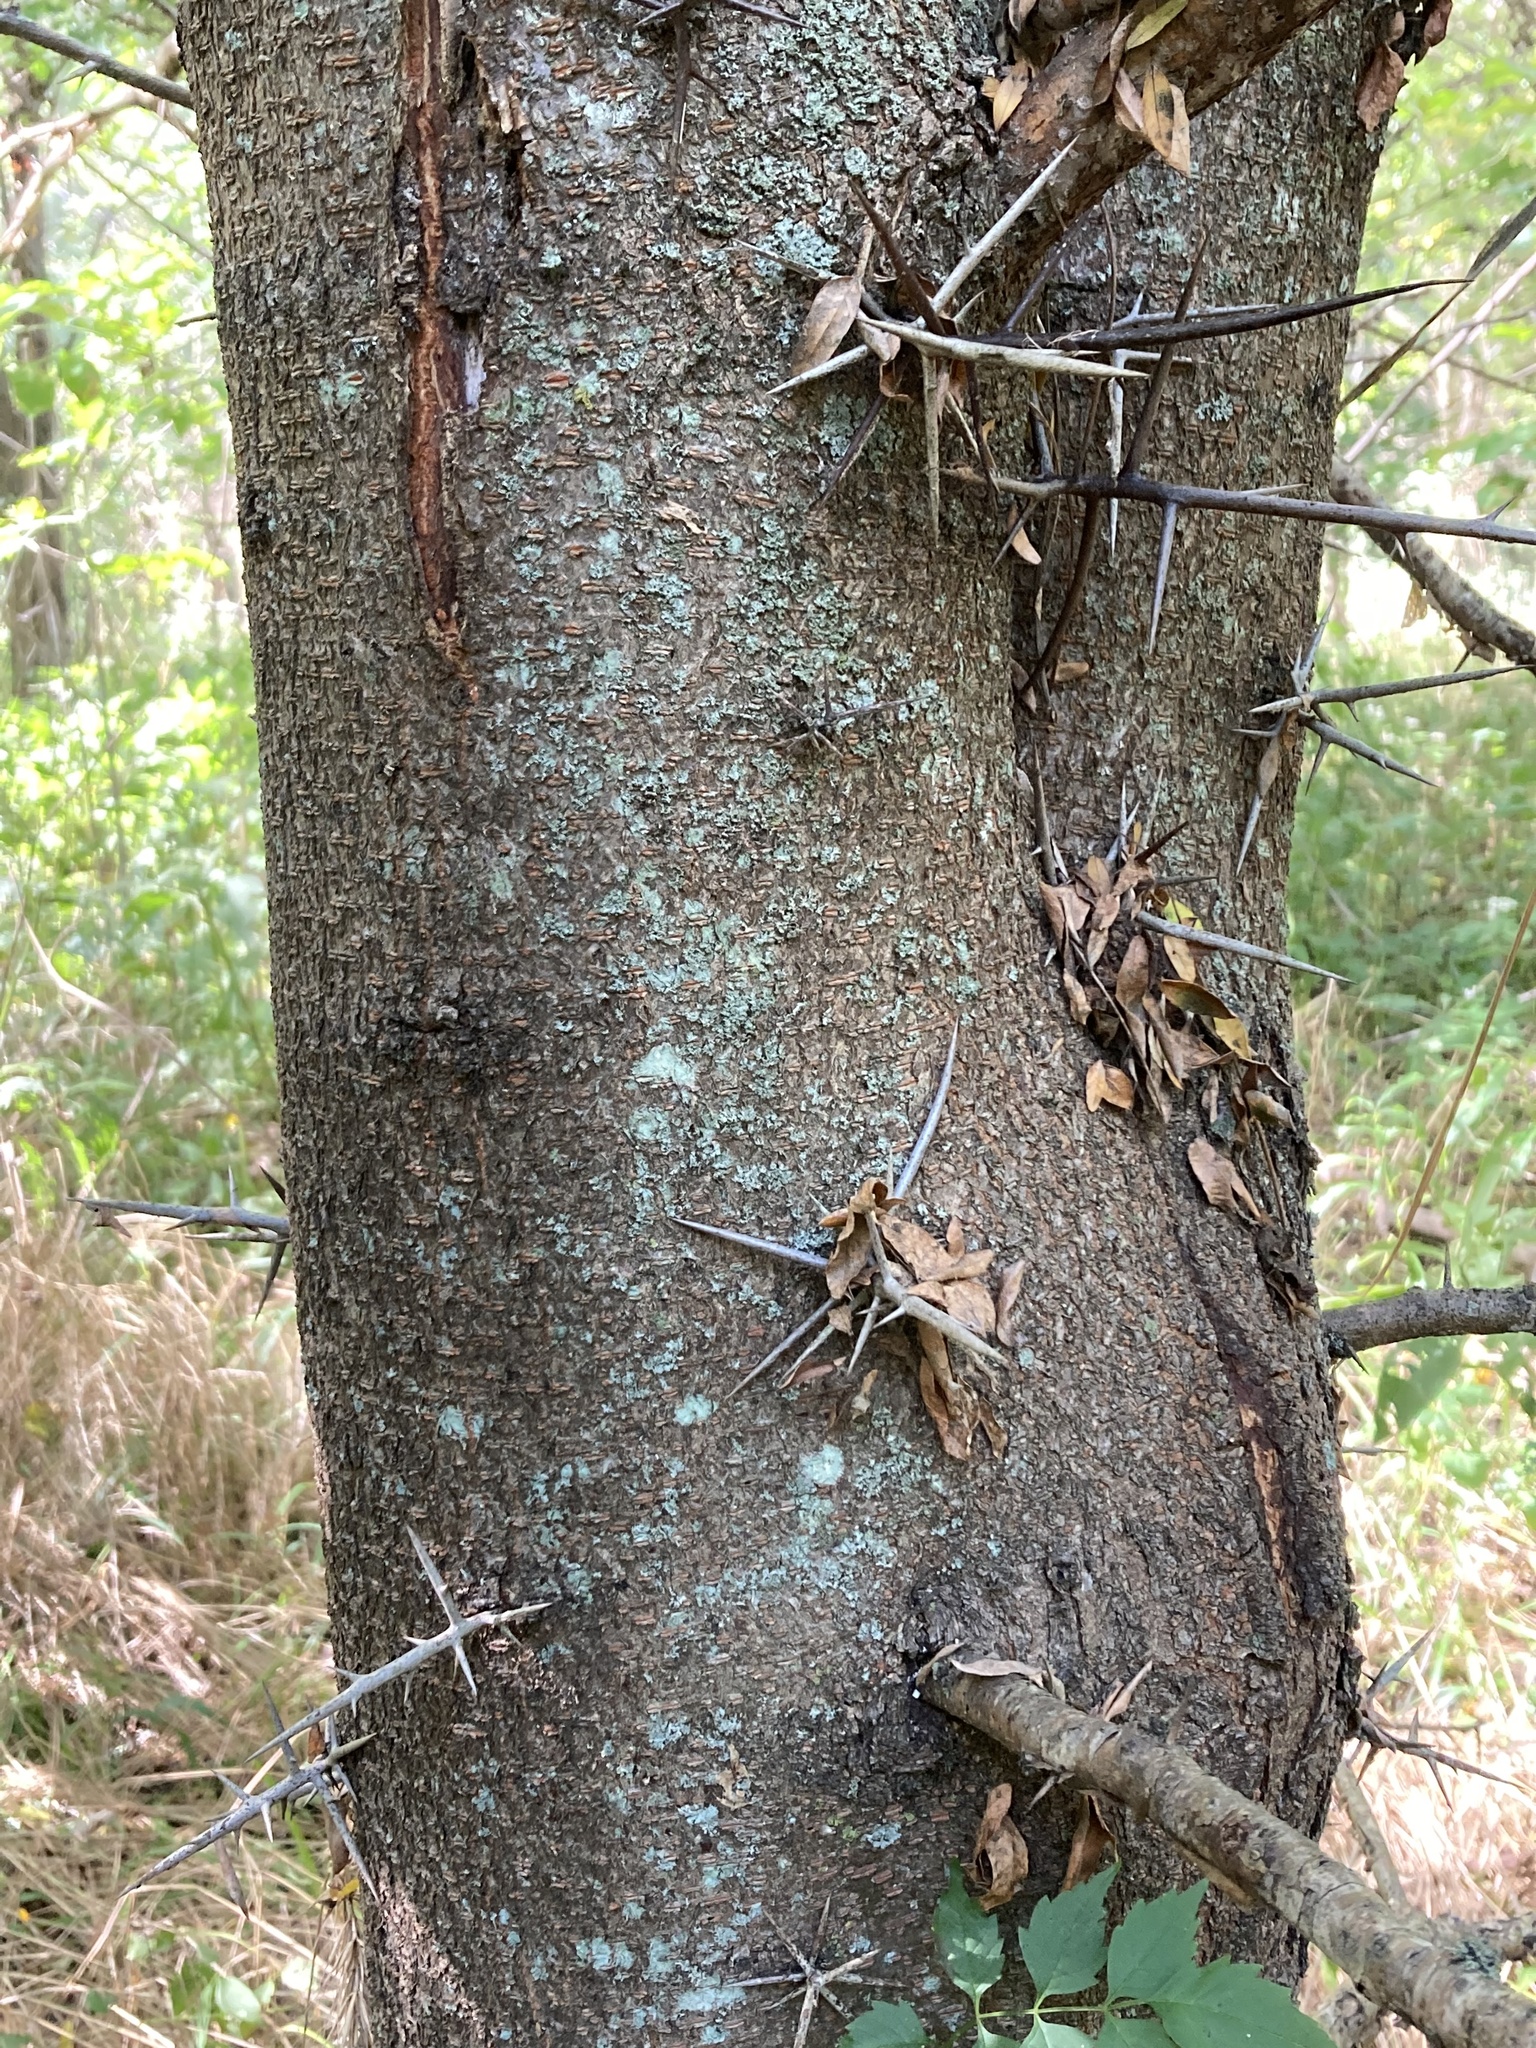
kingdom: Plantae
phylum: Tracheophyta
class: Magnoliopsida
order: Fabales
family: Fabaceae
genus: Gleditsia
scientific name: Gleditsia triacanthos
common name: Common honeylocust
